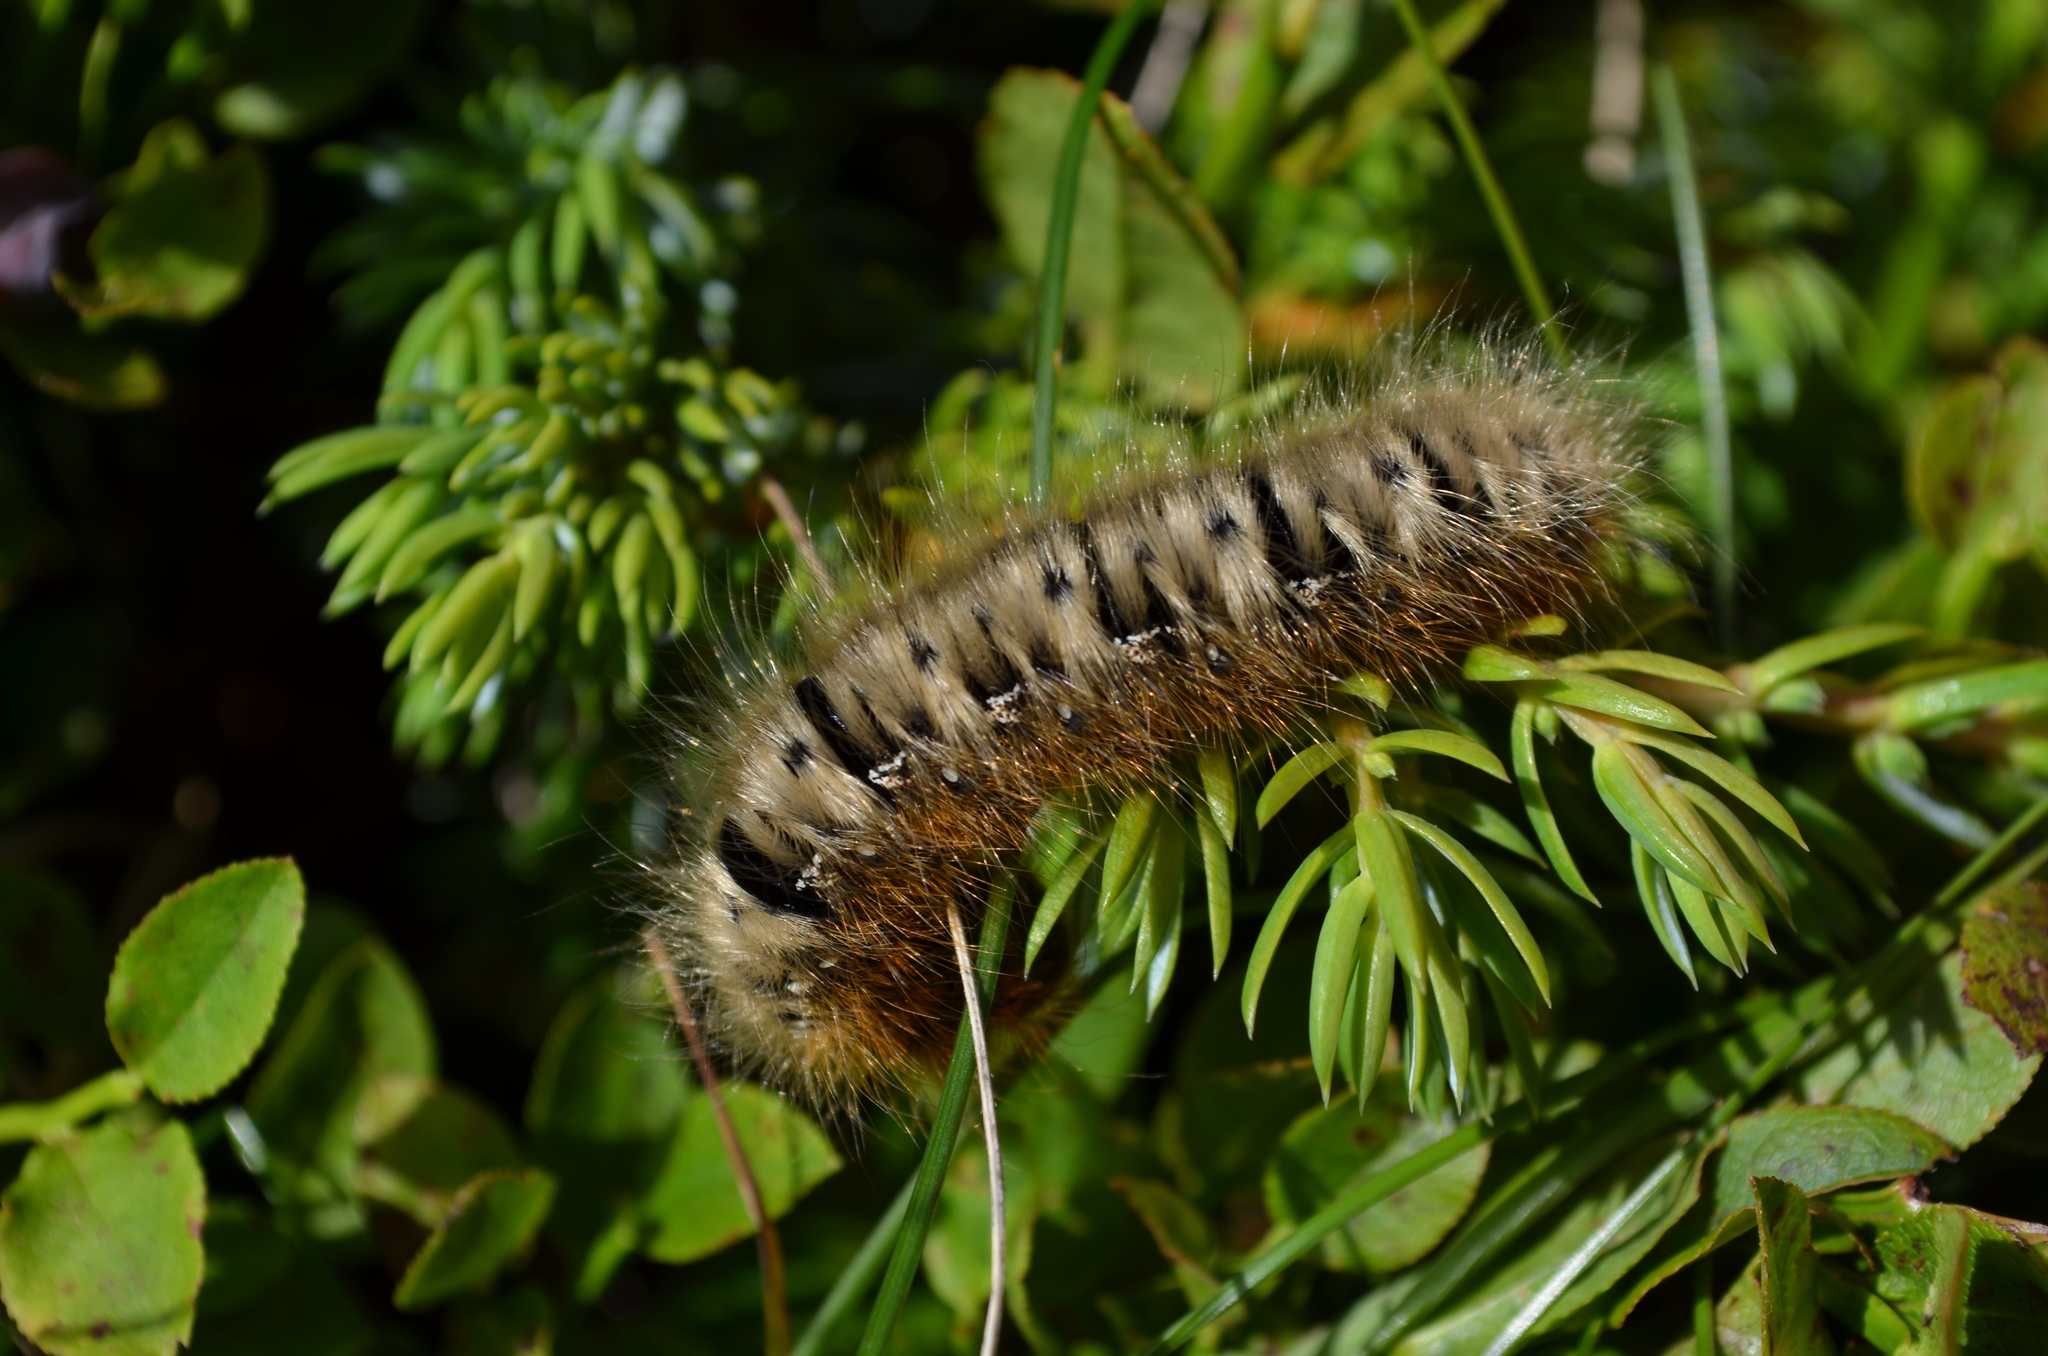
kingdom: Animalia
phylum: Arthropoda
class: Insecta
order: Lepidoptera
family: Lasiocampidae
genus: Lasiocampa
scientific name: Lasiocampa quercus
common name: Oak eggar
